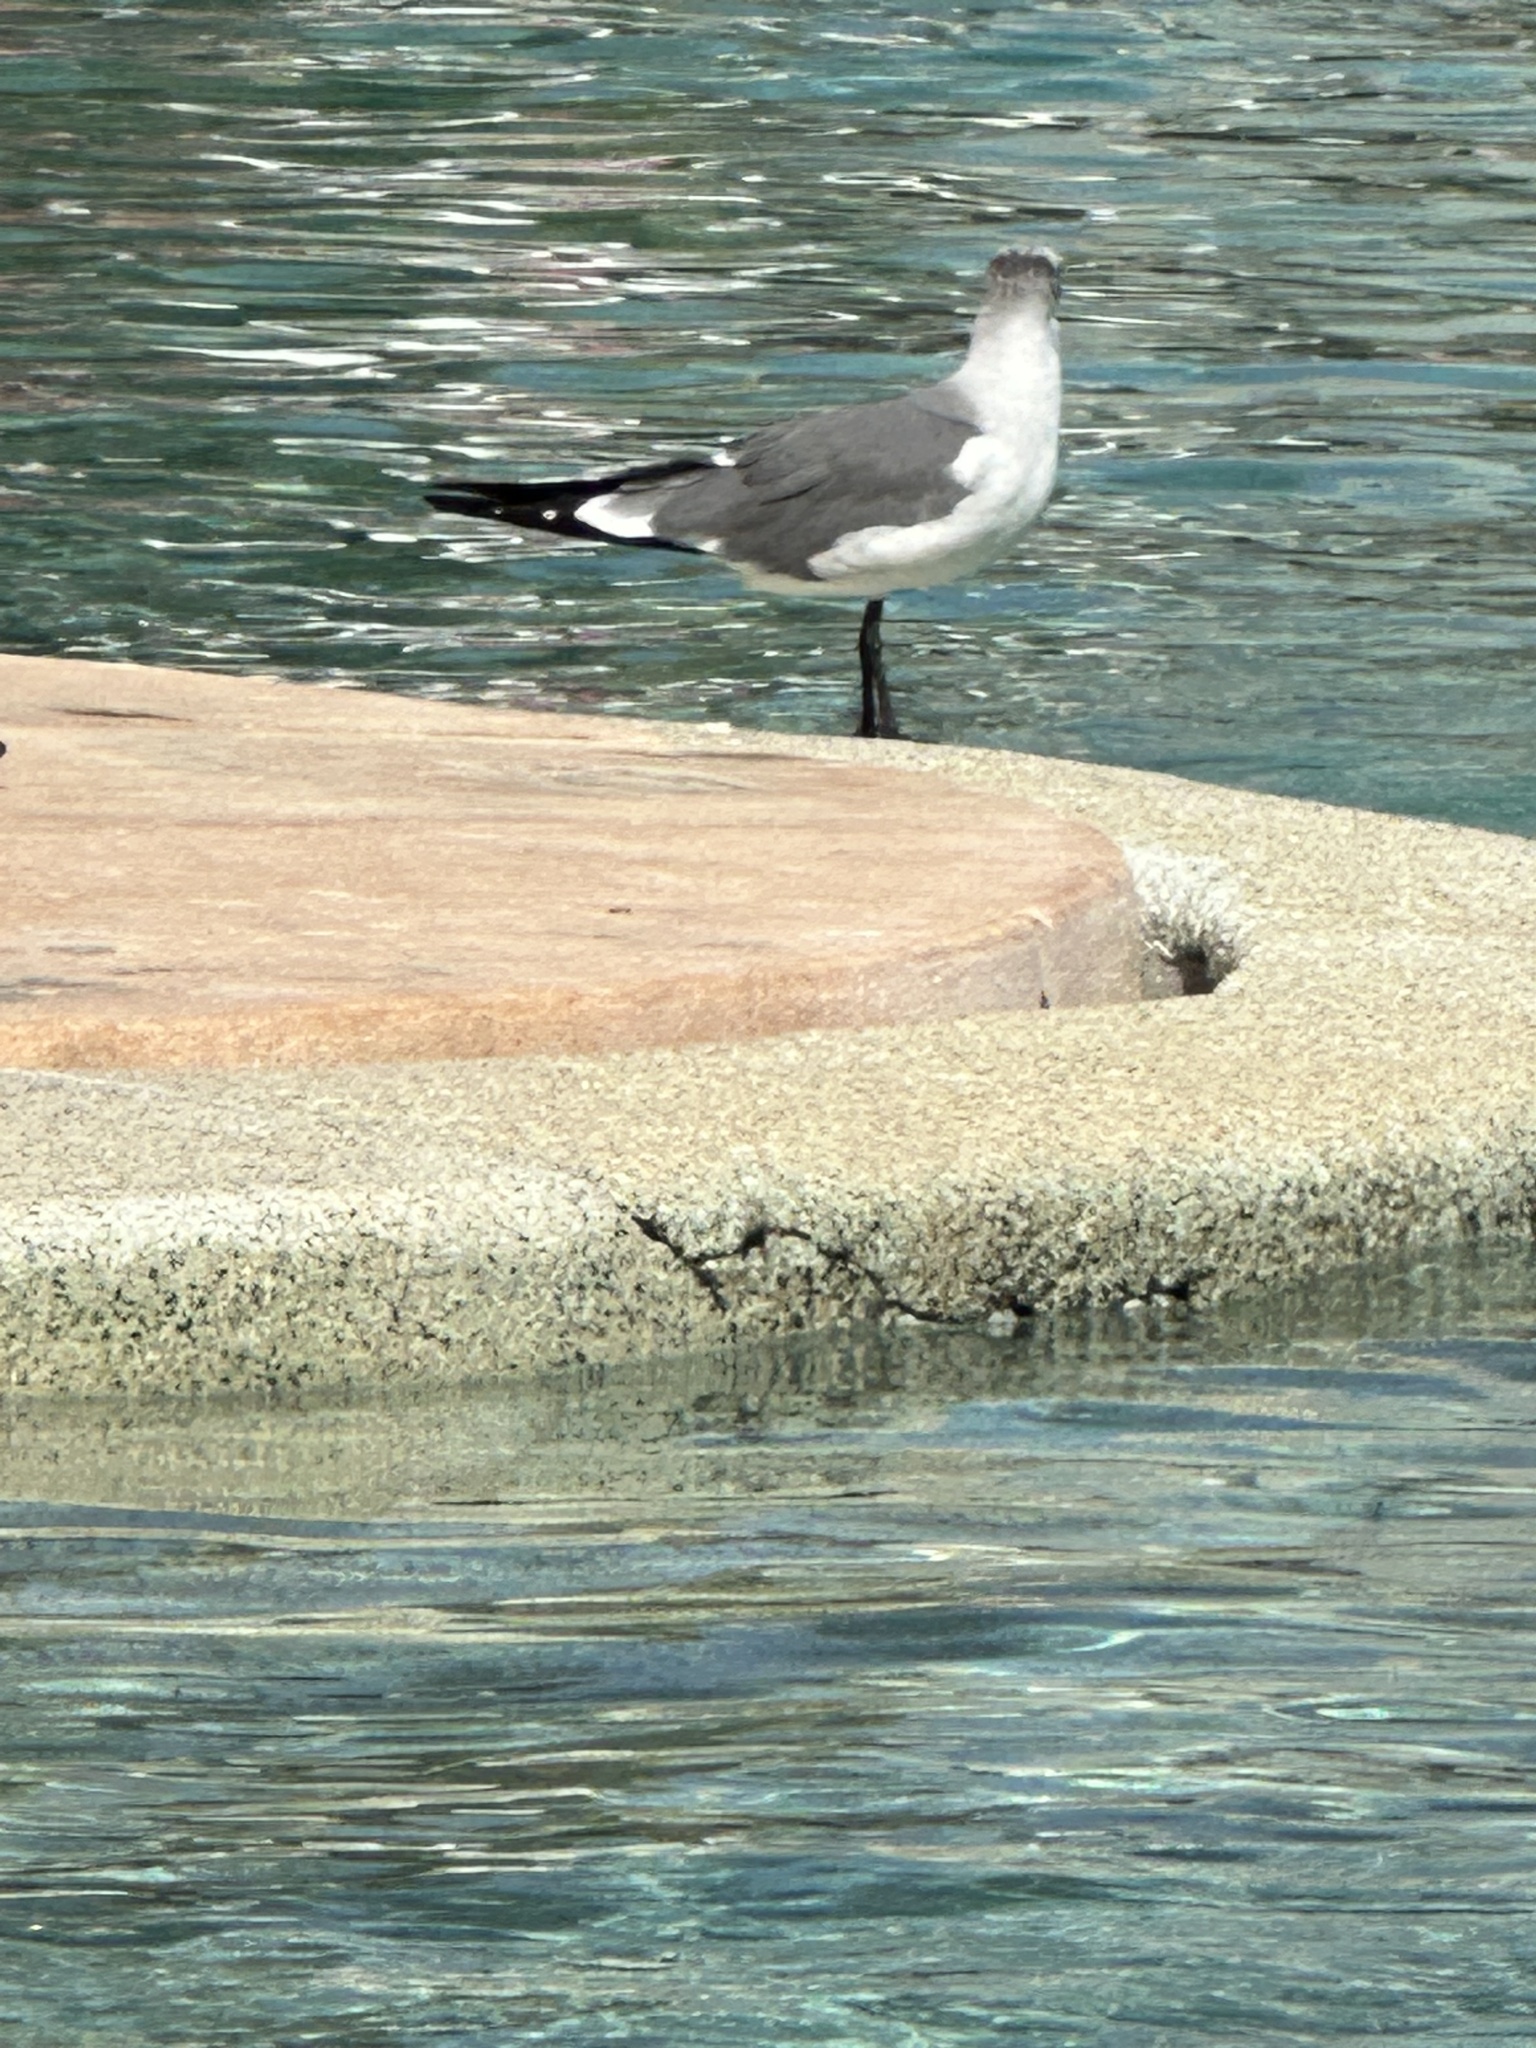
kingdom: Animalia
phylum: Chordata
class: Aves
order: Charadriiformes
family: Laridae
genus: Leucophaeus
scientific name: Leucophaeus atricilla
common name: Laughing gull
